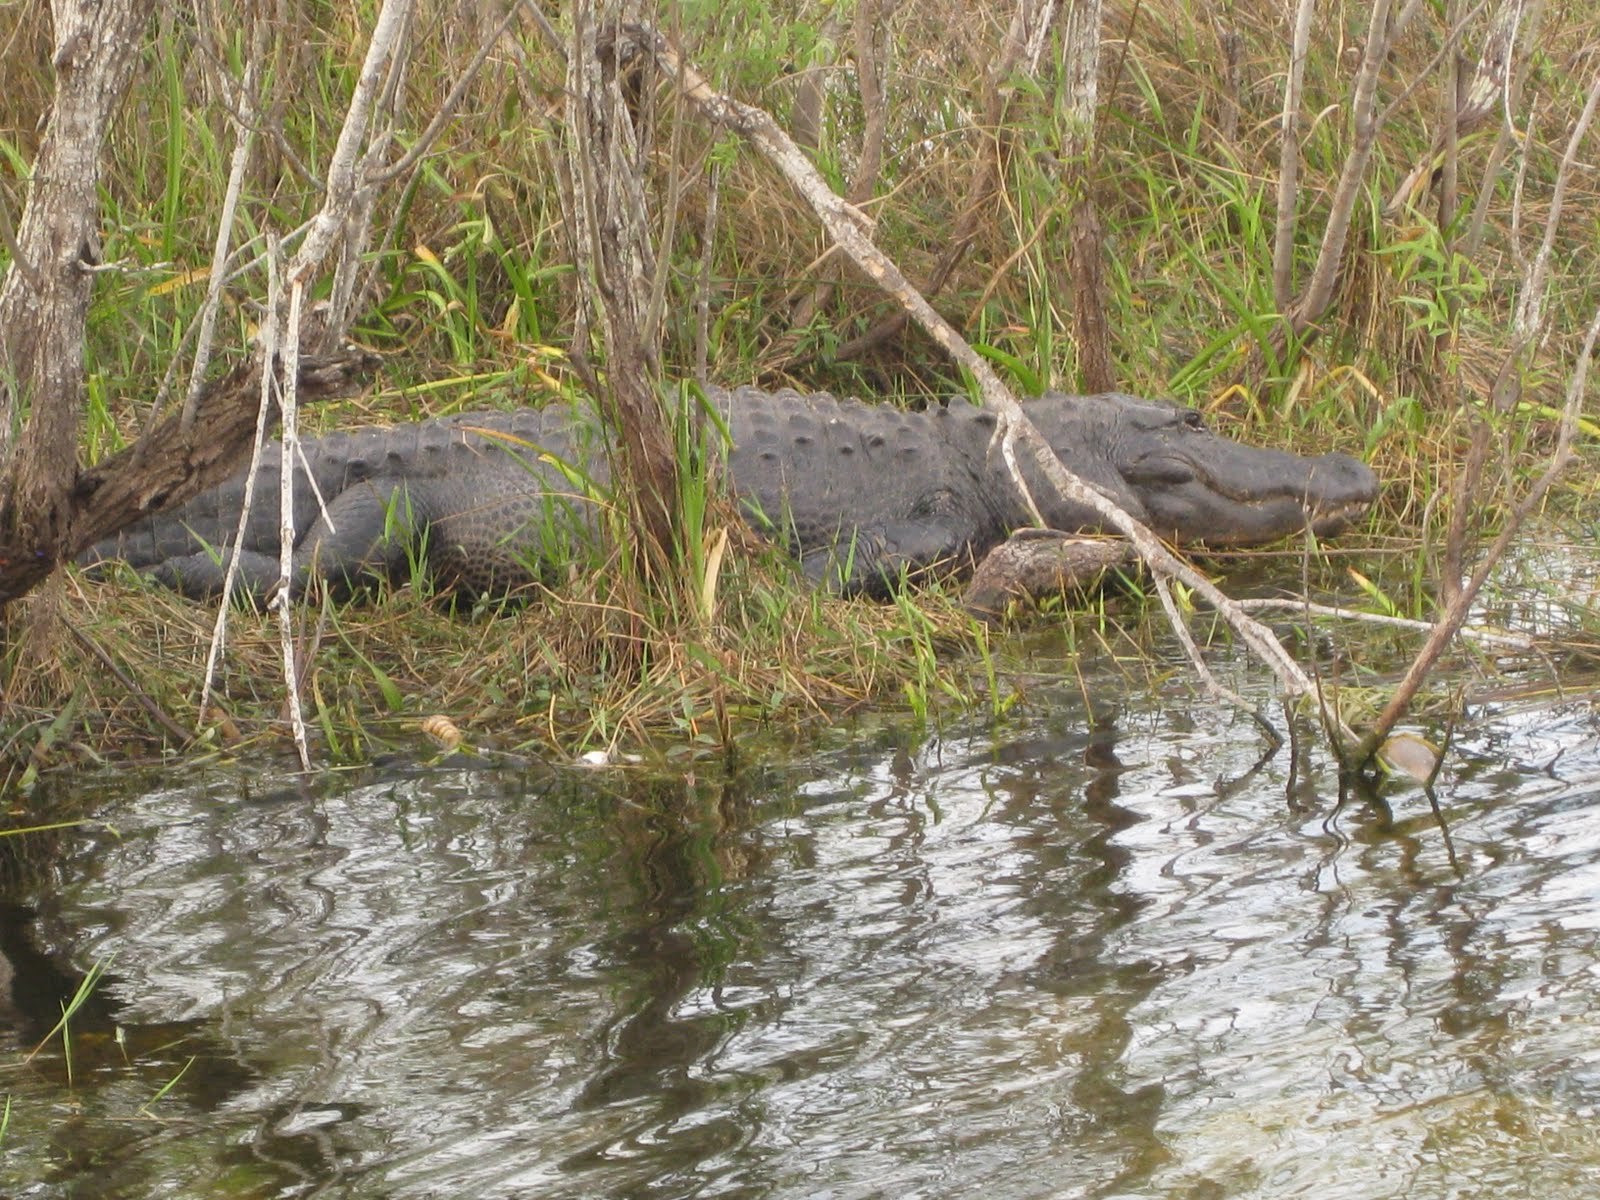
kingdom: Animalia
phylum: Chordata
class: Crocodylia
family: Alligatoridae
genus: Alligator
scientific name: Alligator mississippiensis
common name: American alligator
